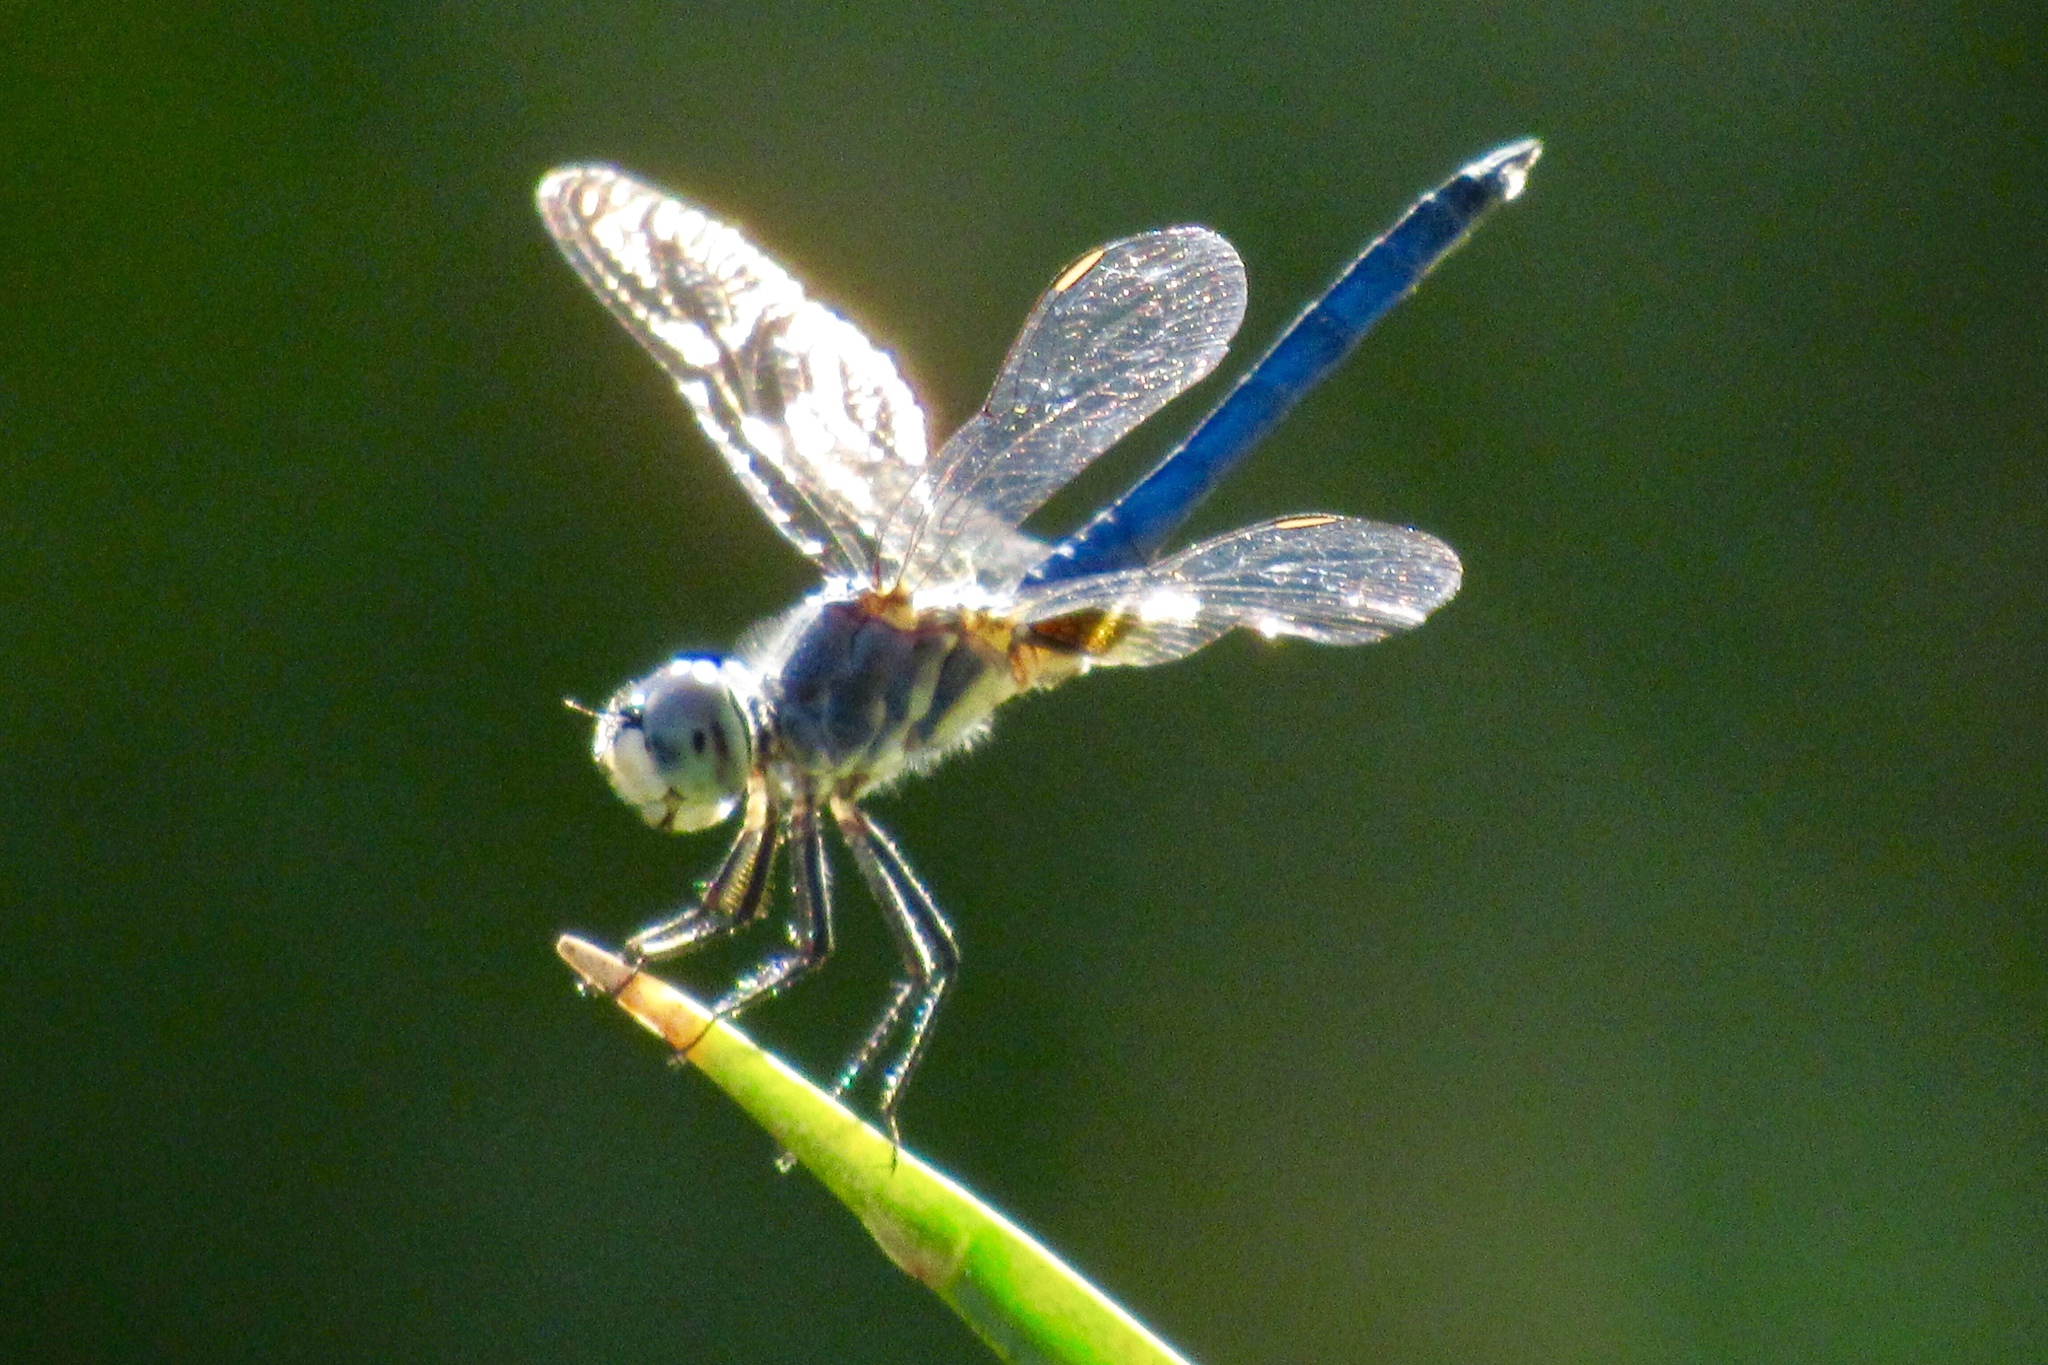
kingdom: Animalia
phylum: Arthropoda
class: Insecta
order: Odonata
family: Libellulidae
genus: Pachydiplax
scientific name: Pachydiplax longipennis
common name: Blue dasher
